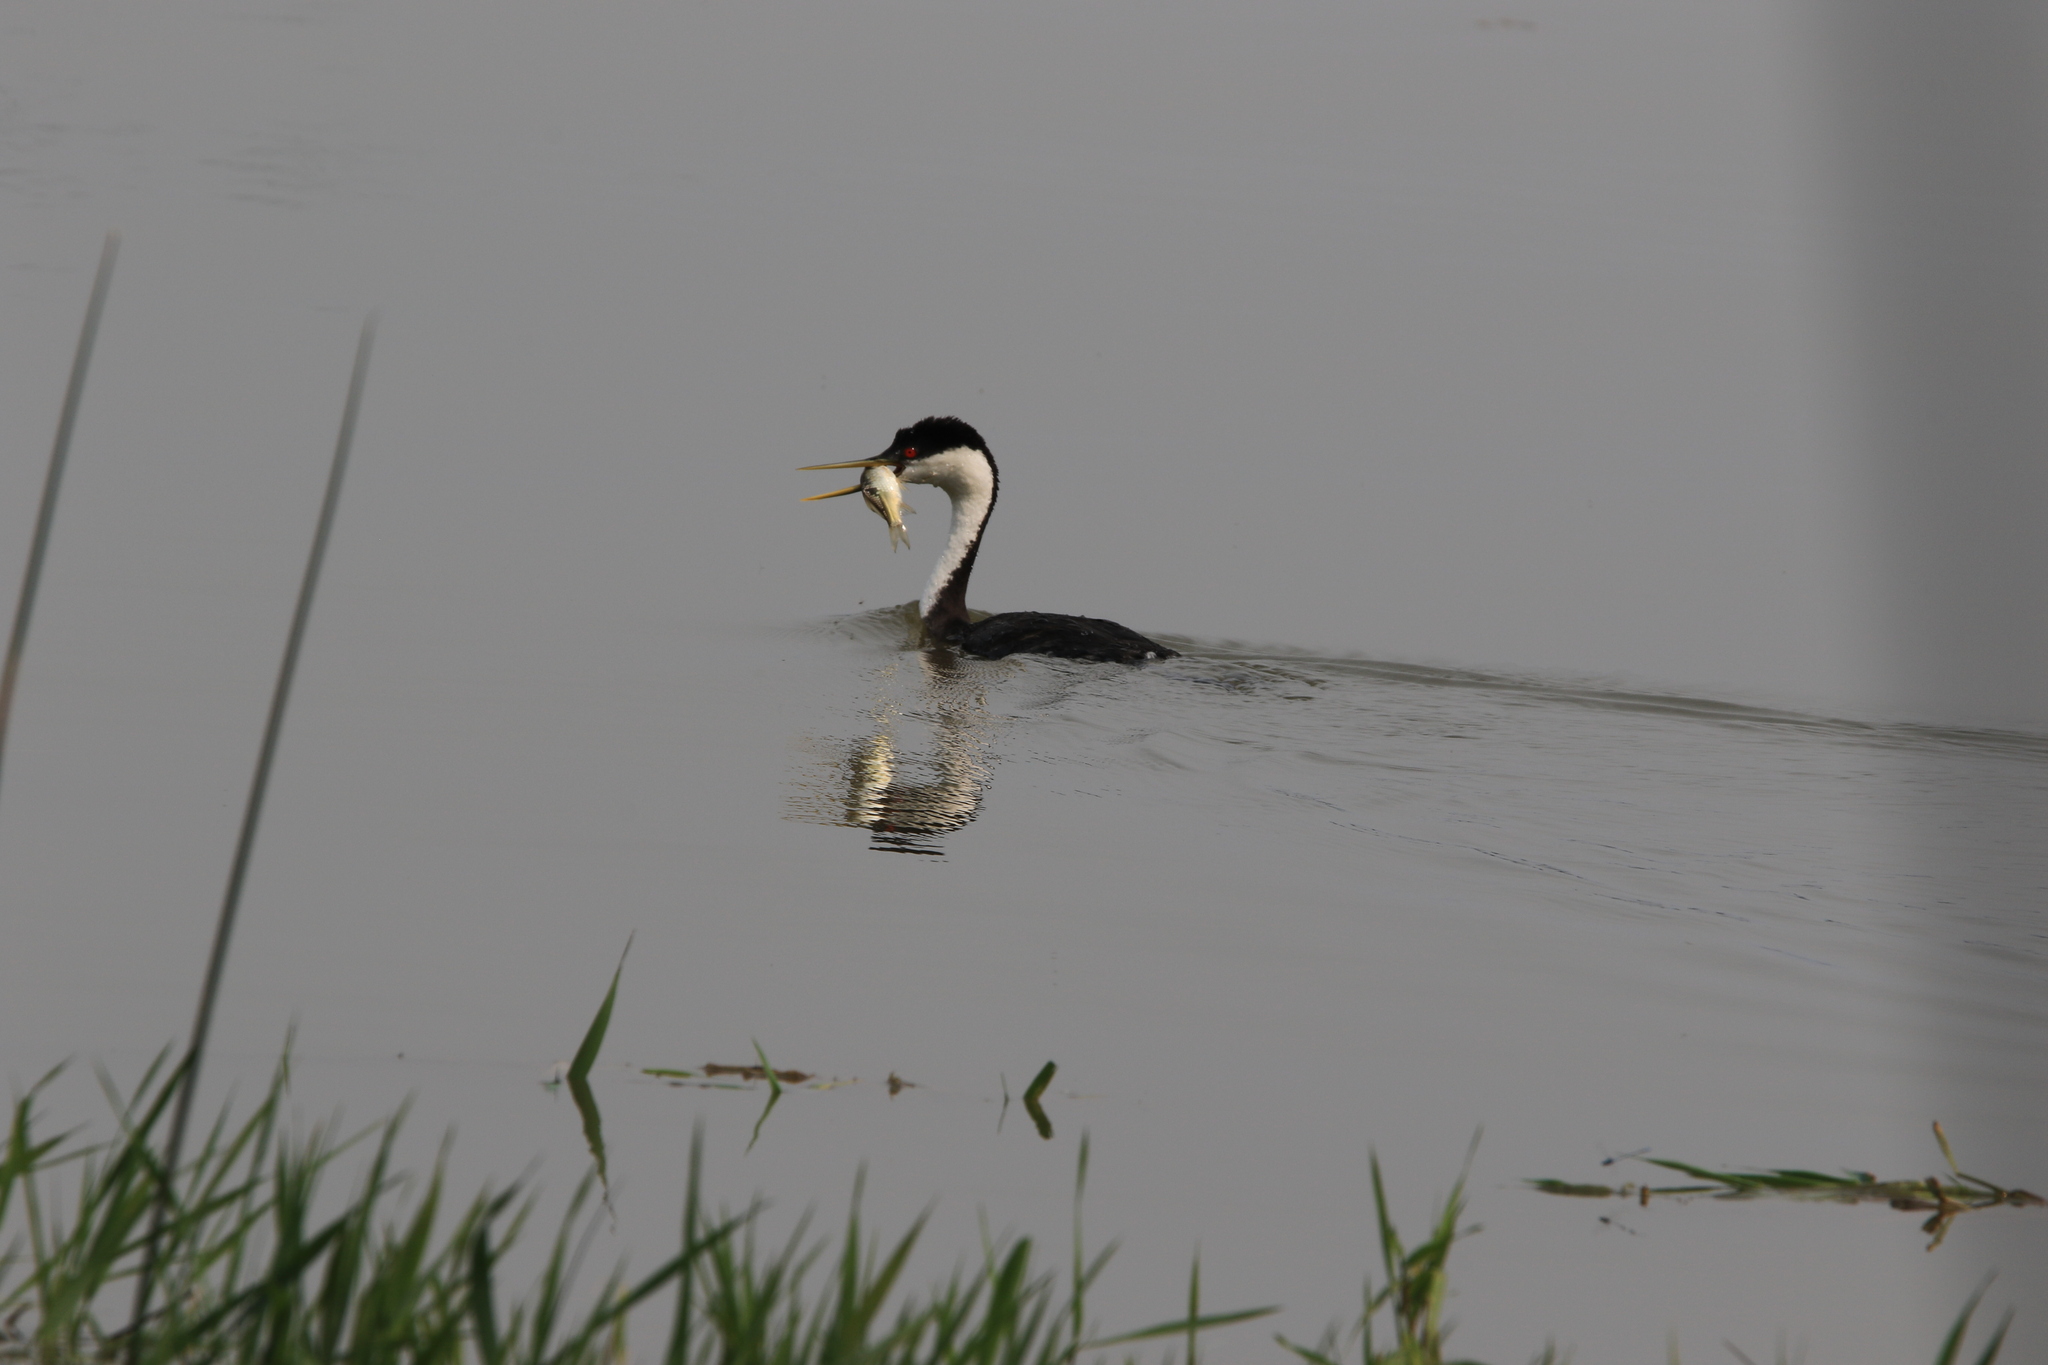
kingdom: Animalia
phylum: Chordata
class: Aves
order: Podicipediformes
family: Podicipedidae
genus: Aechmophorus
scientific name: Aechmophorus occidentalis
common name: Western grebe
